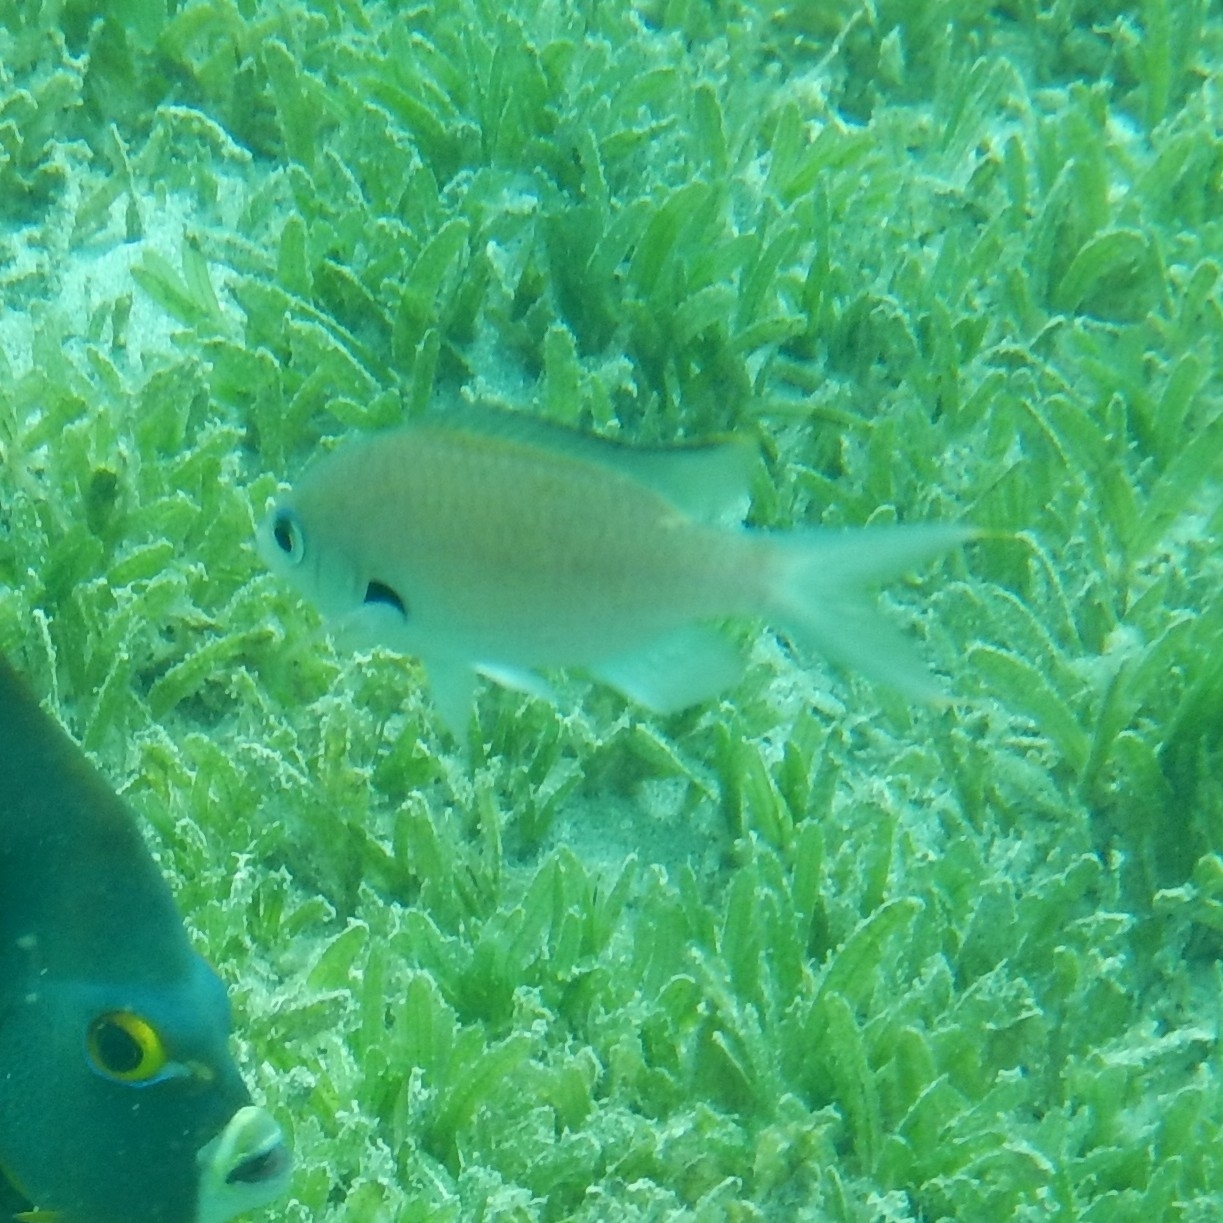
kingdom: Animalia
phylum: Chordata
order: Perciformes
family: Pomacentridae
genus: Chromis
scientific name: Chromis multilineata
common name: Brown chromis
